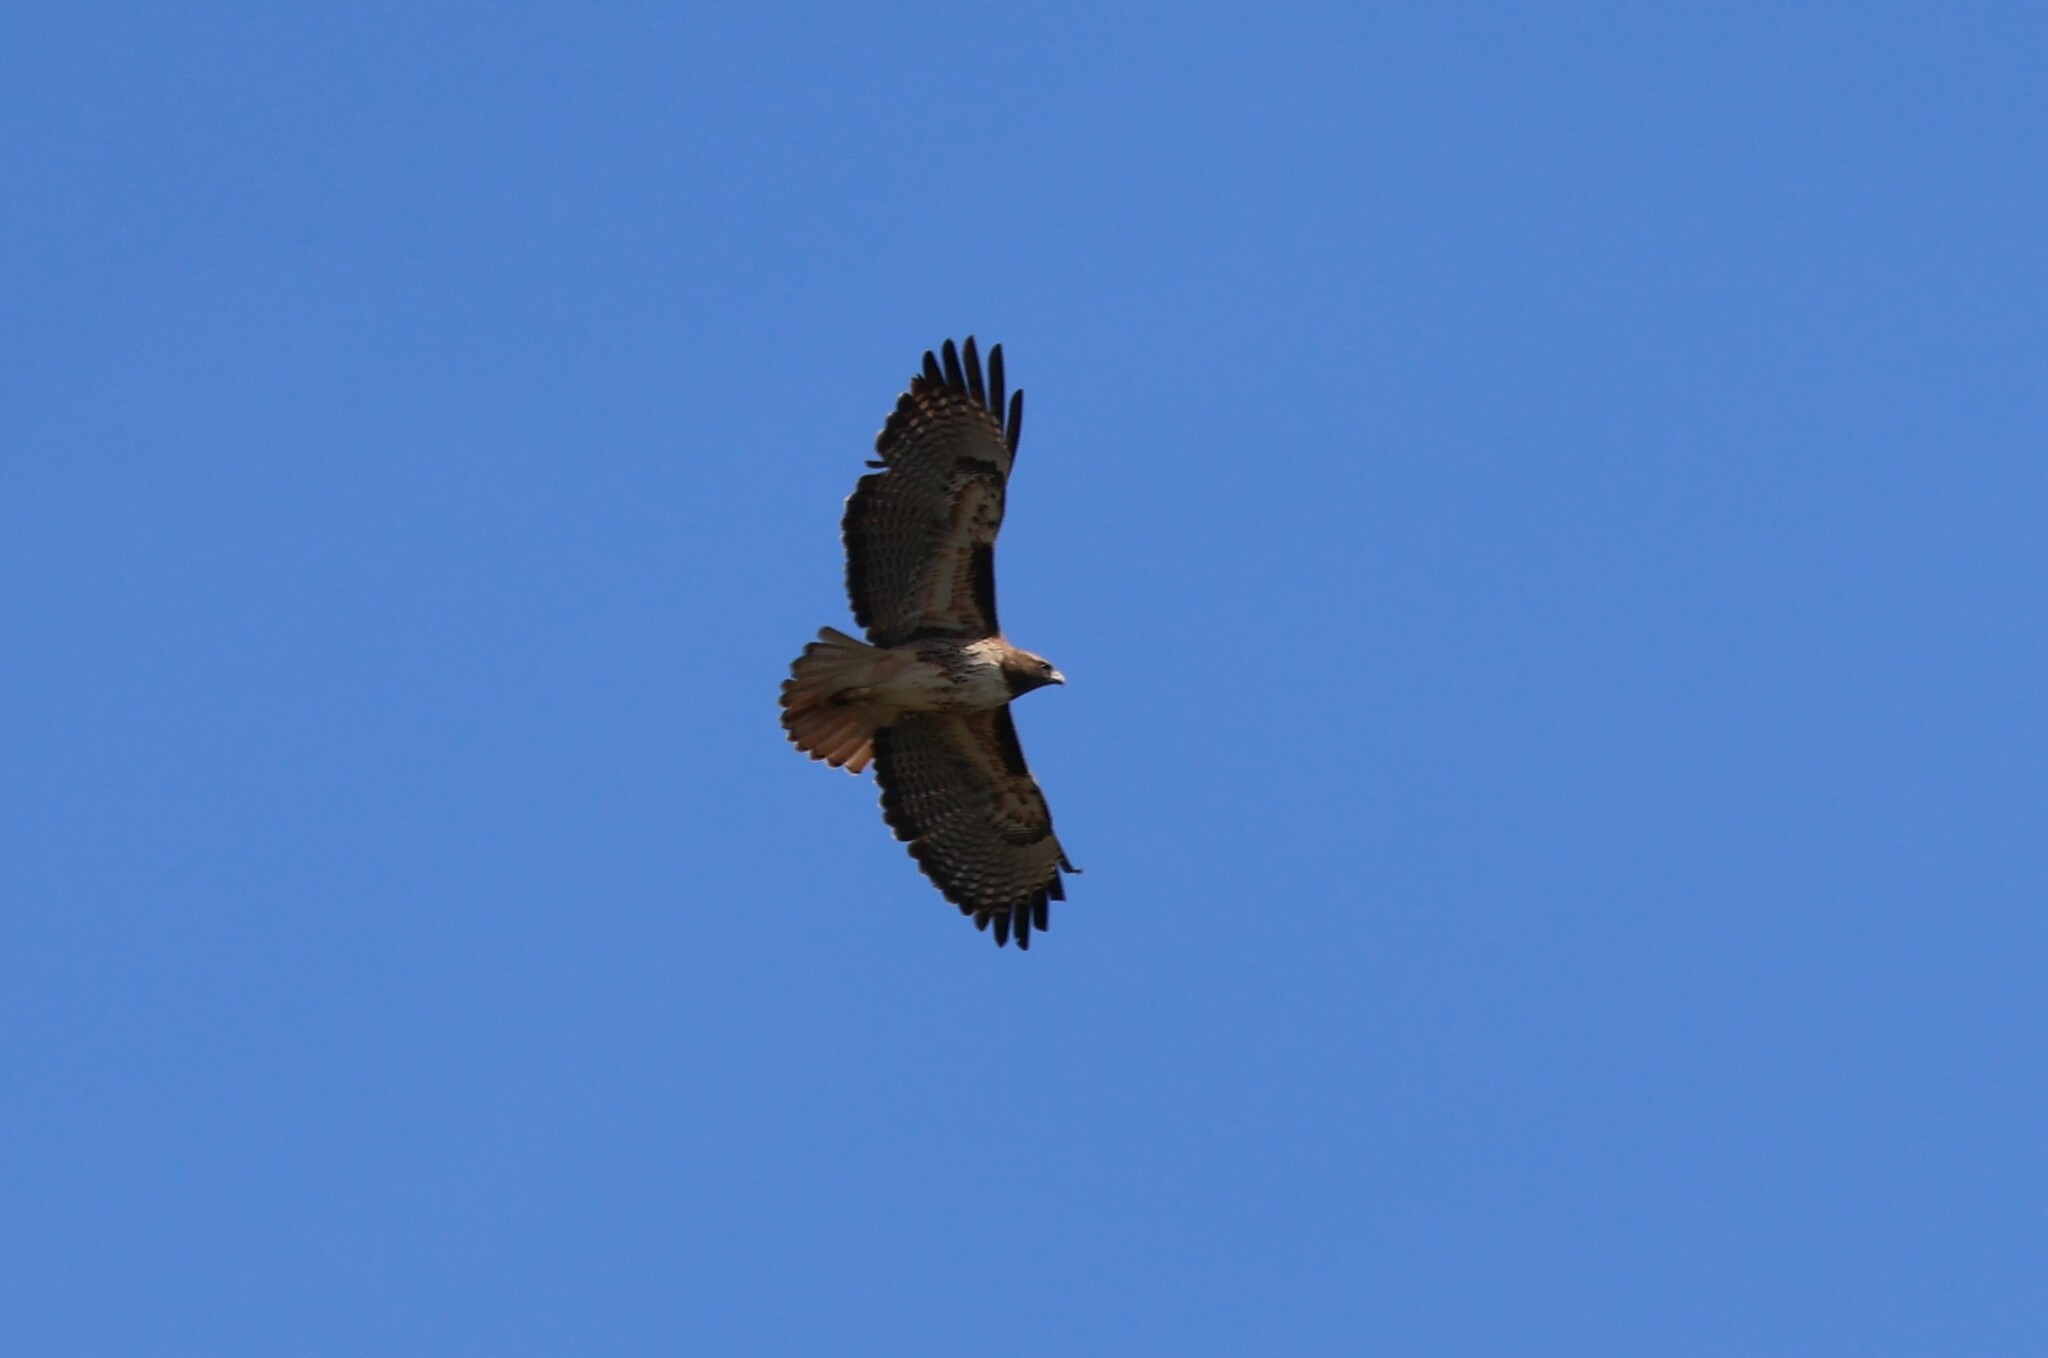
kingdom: Animalia
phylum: Chordata
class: Aves
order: Accipitriformes
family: Accipitridae
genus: Buteo
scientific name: Buteo jamaicensis
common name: Red-tailed hawk
